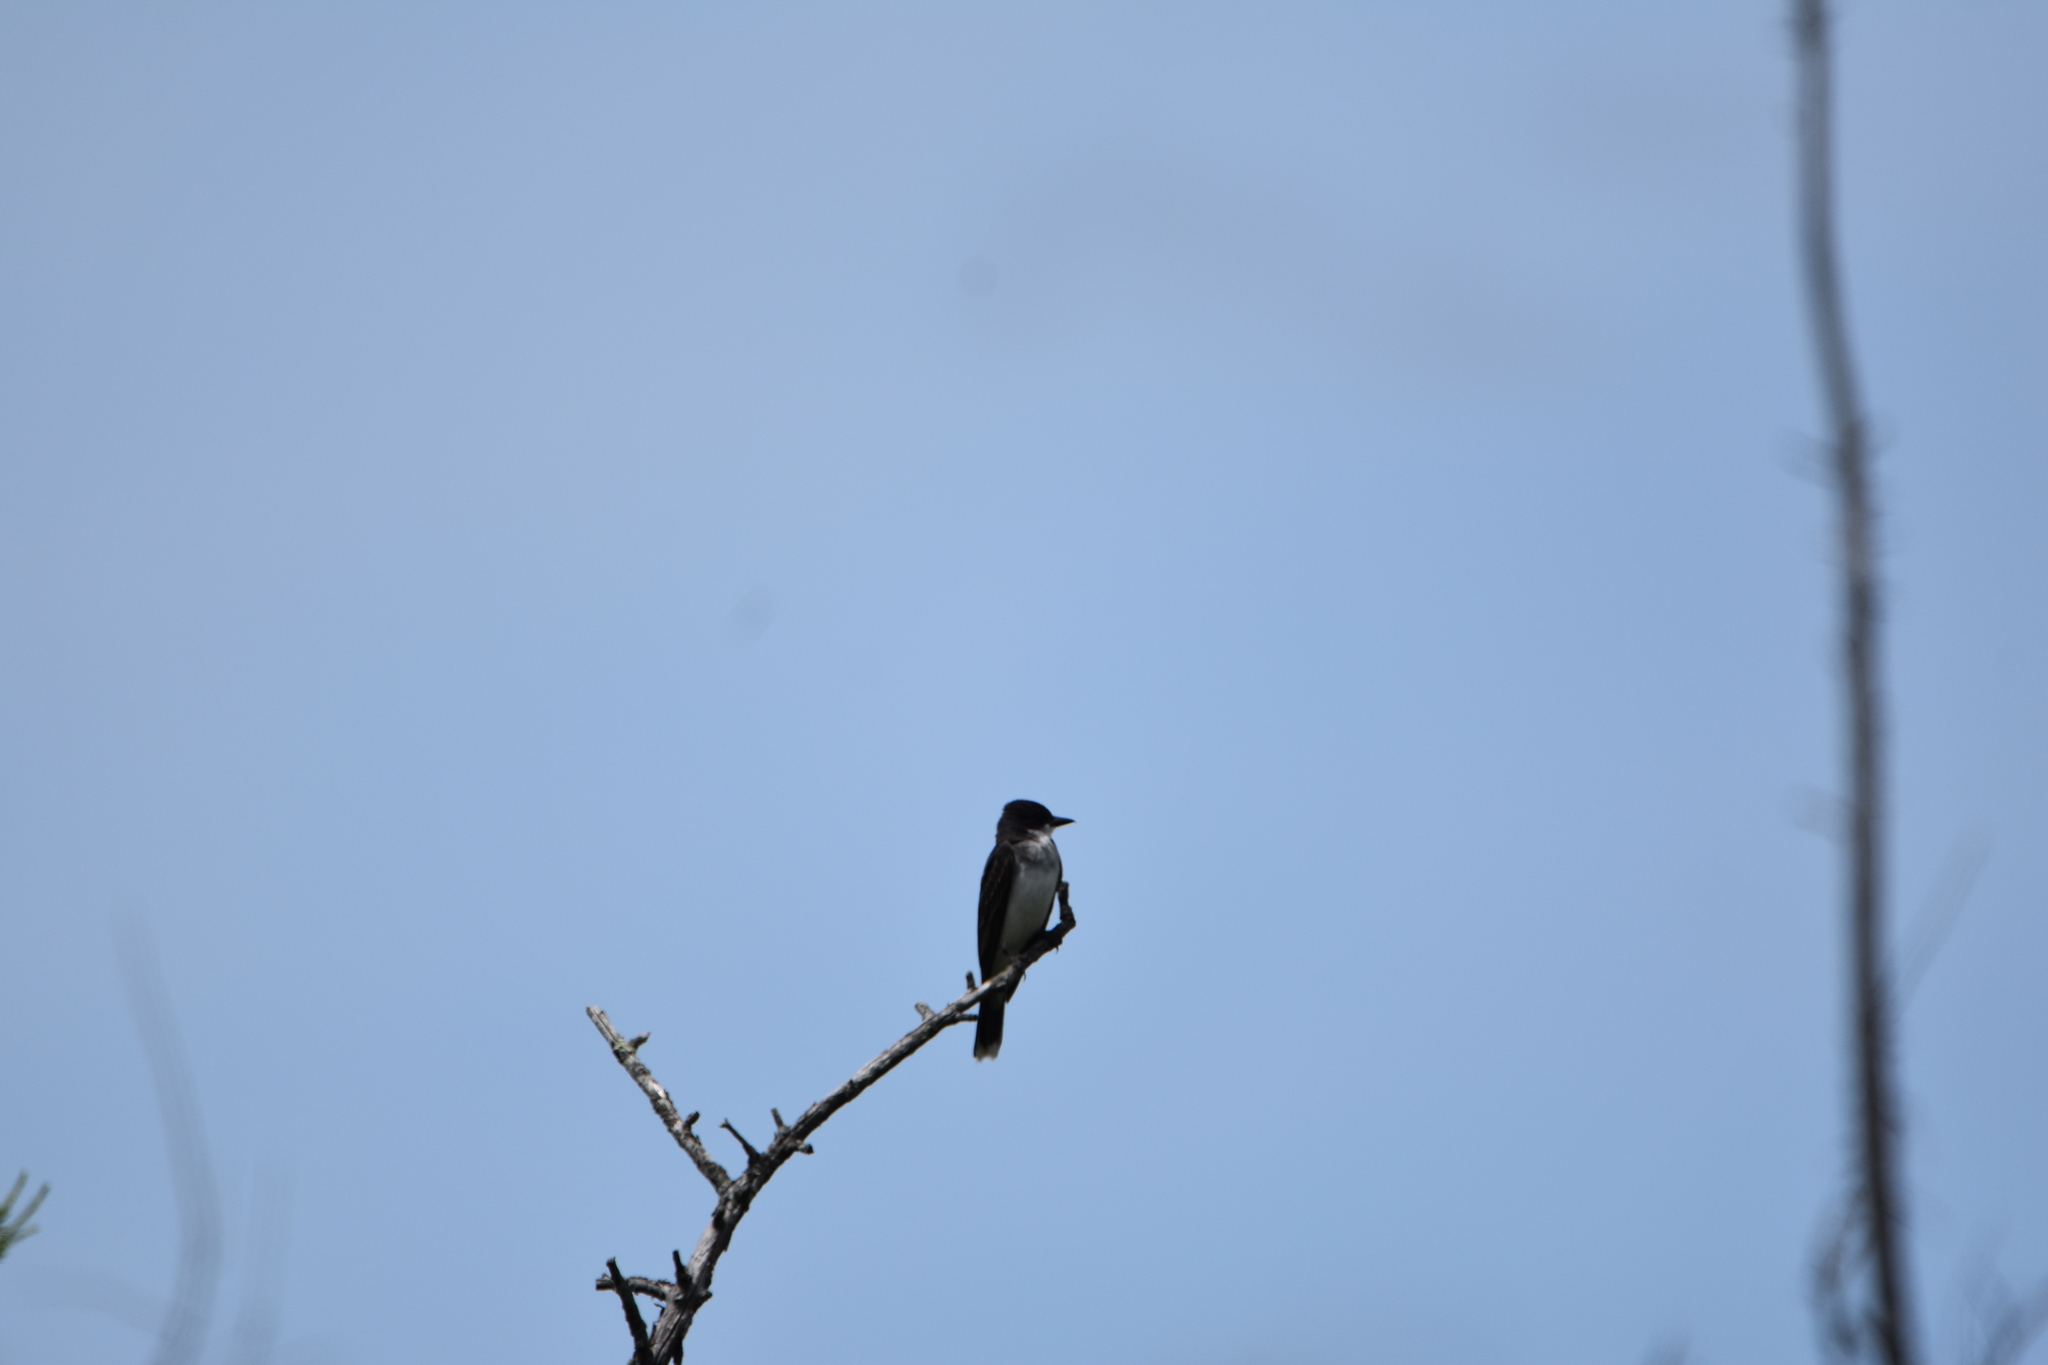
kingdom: Animalia
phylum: Chordata
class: Aves
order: Passeriformes
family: Tyrannidae
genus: Tyrannus
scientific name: Tyrannus tyrannus
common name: Eastern kingbird
